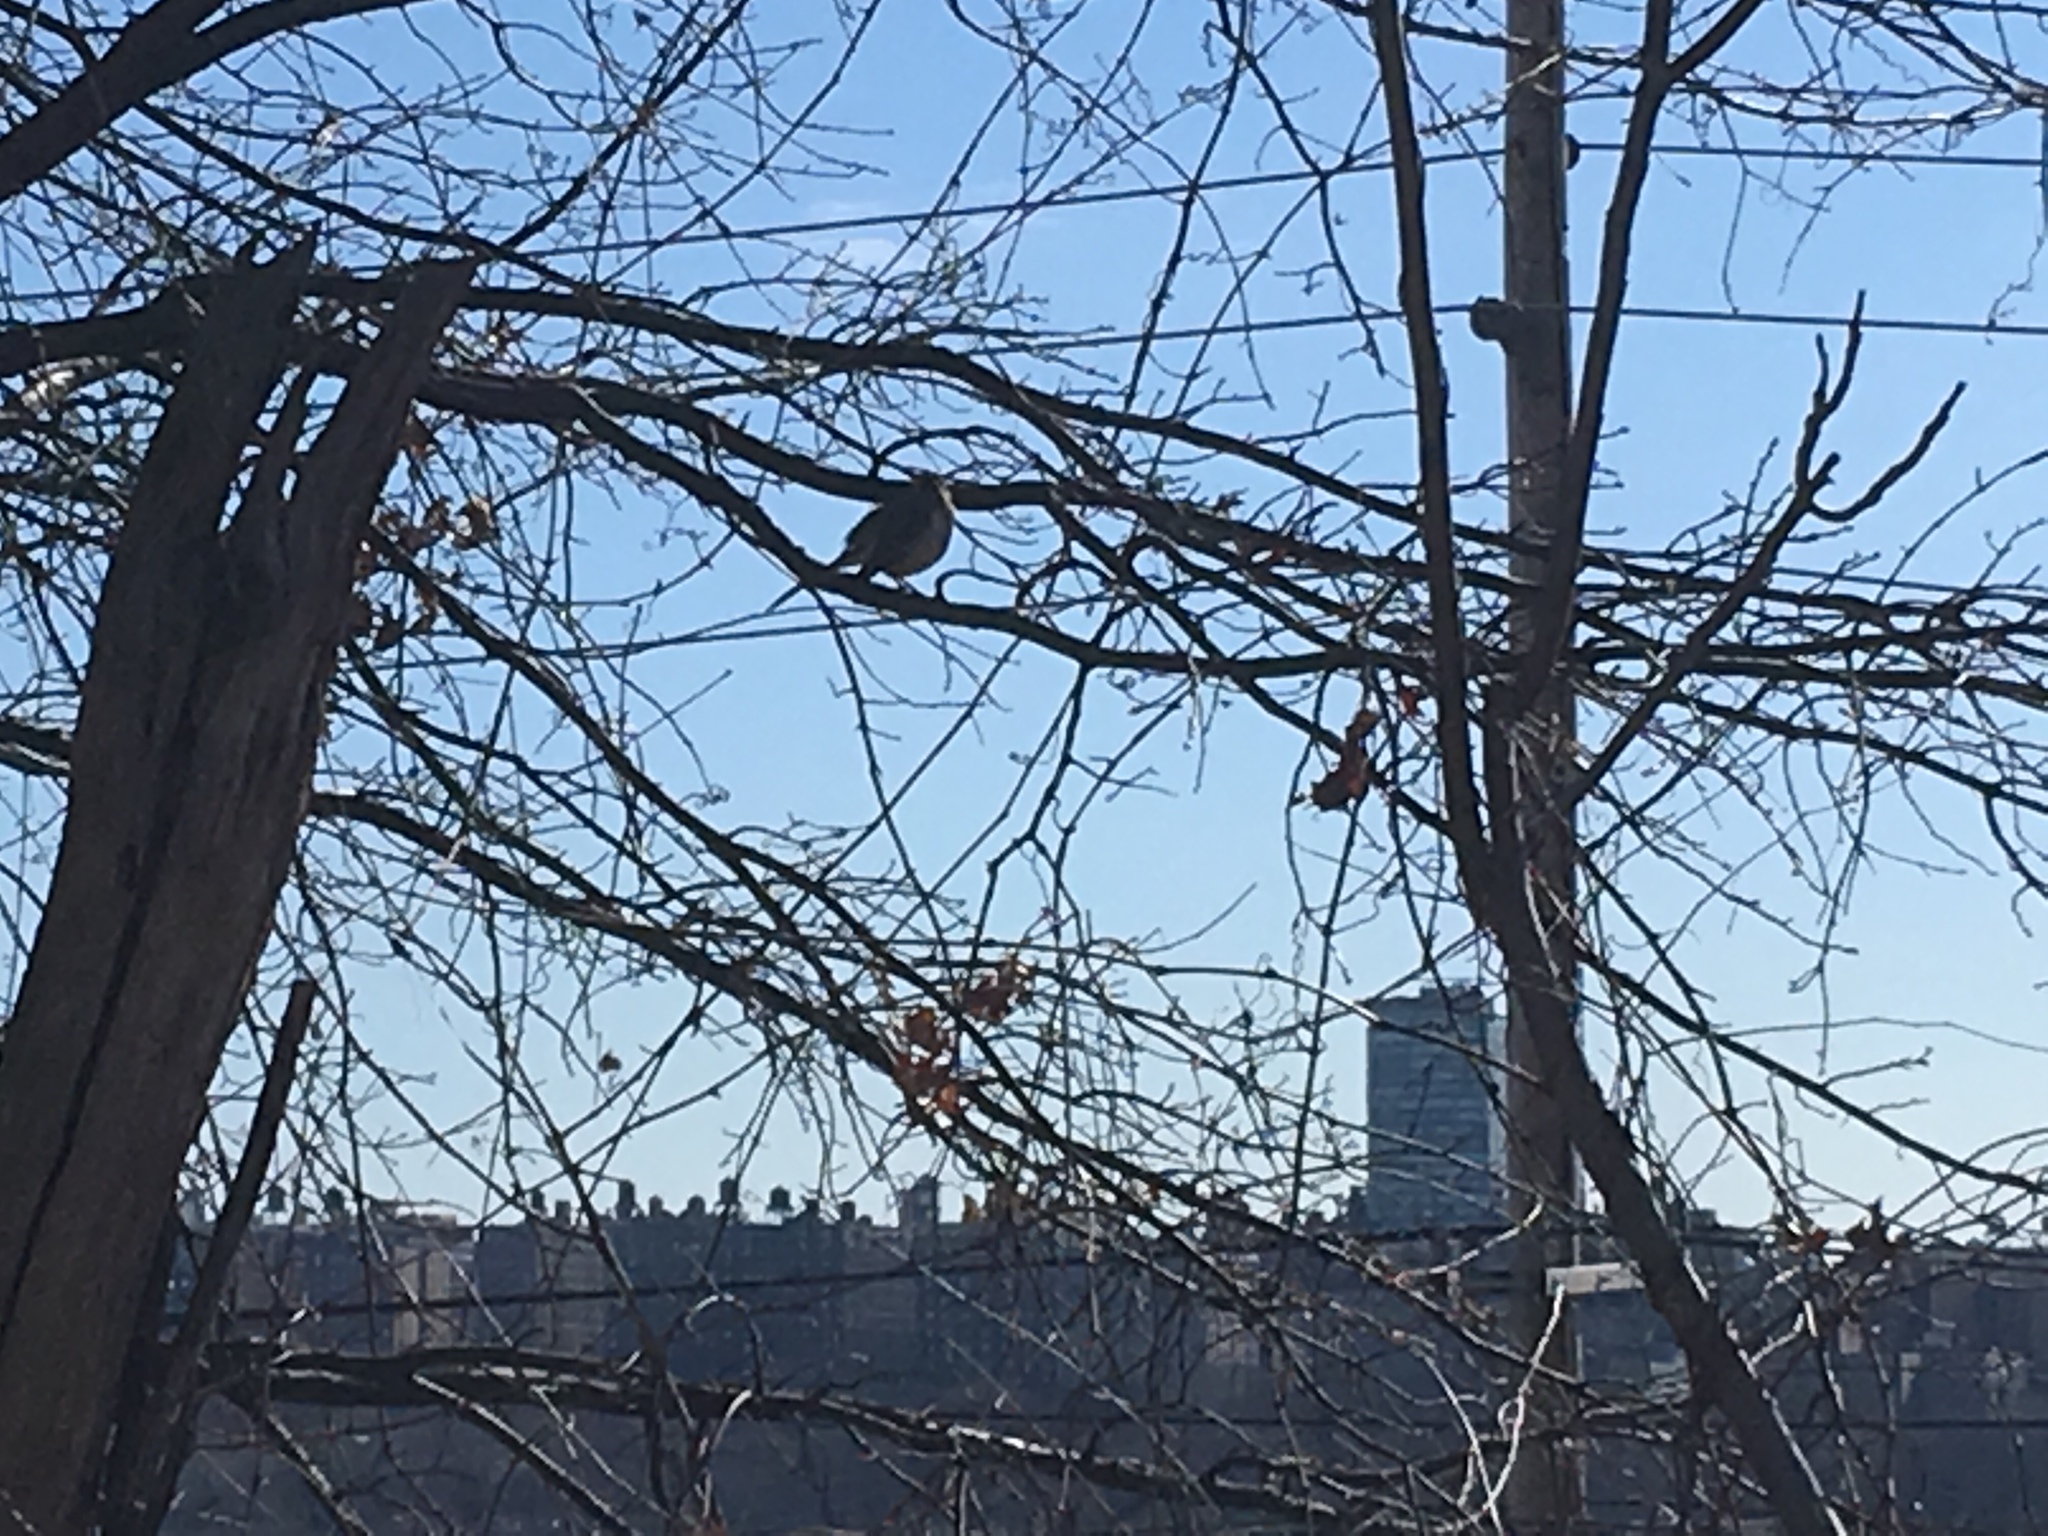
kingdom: Animalia
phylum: Chordata
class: Aves
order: Passeriformes
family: Mimidae
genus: Mimus
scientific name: Mimus polyglottos
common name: Northern mockingbird
